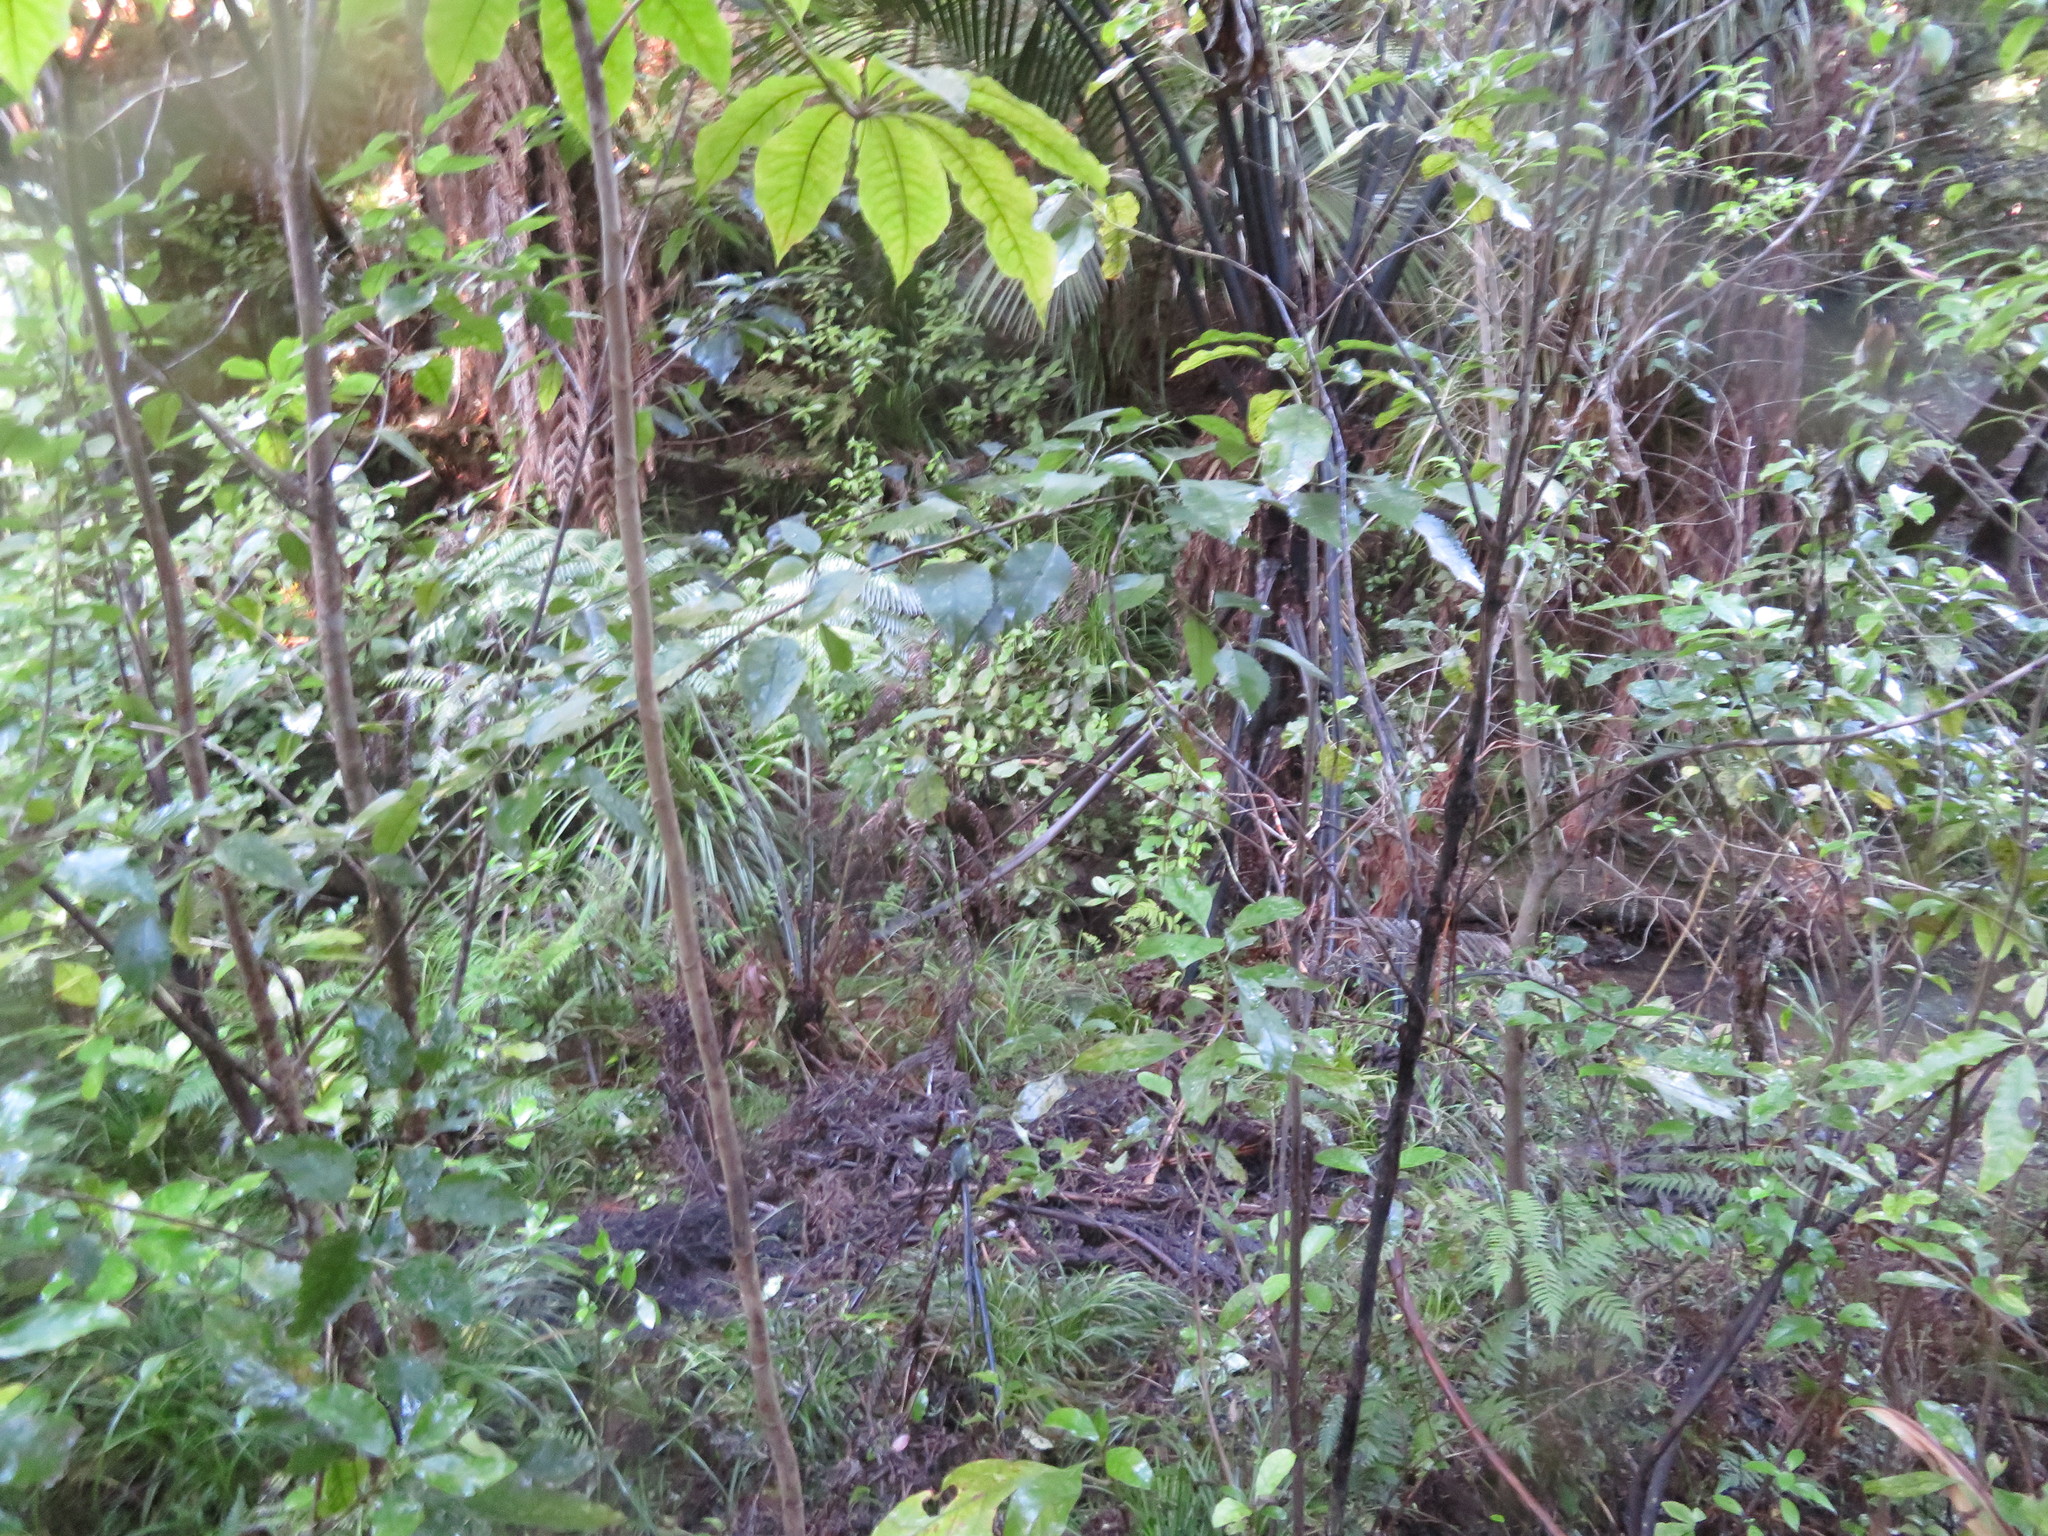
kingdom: Plantae
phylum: Tracheophyta
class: Magnoliopsida
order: Apiales
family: Araliaceae
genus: Schefflera
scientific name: Schefflera digitata
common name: Pate
